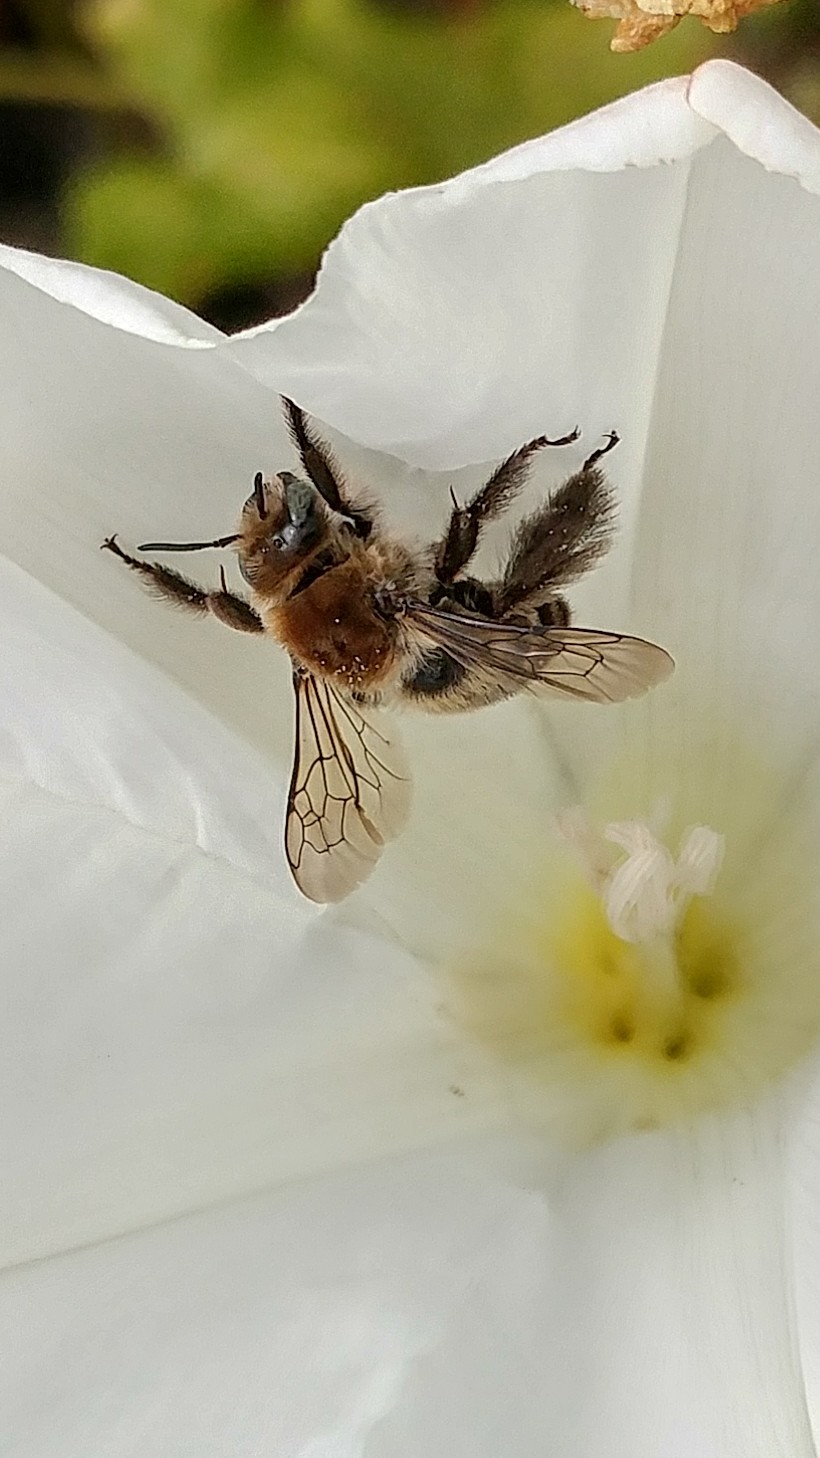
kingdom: Animalia
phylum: Arthropoda
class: Insecta
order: Hymenoptera
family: Apidae
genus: Diadasia
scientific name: Diadasia bituberculata
